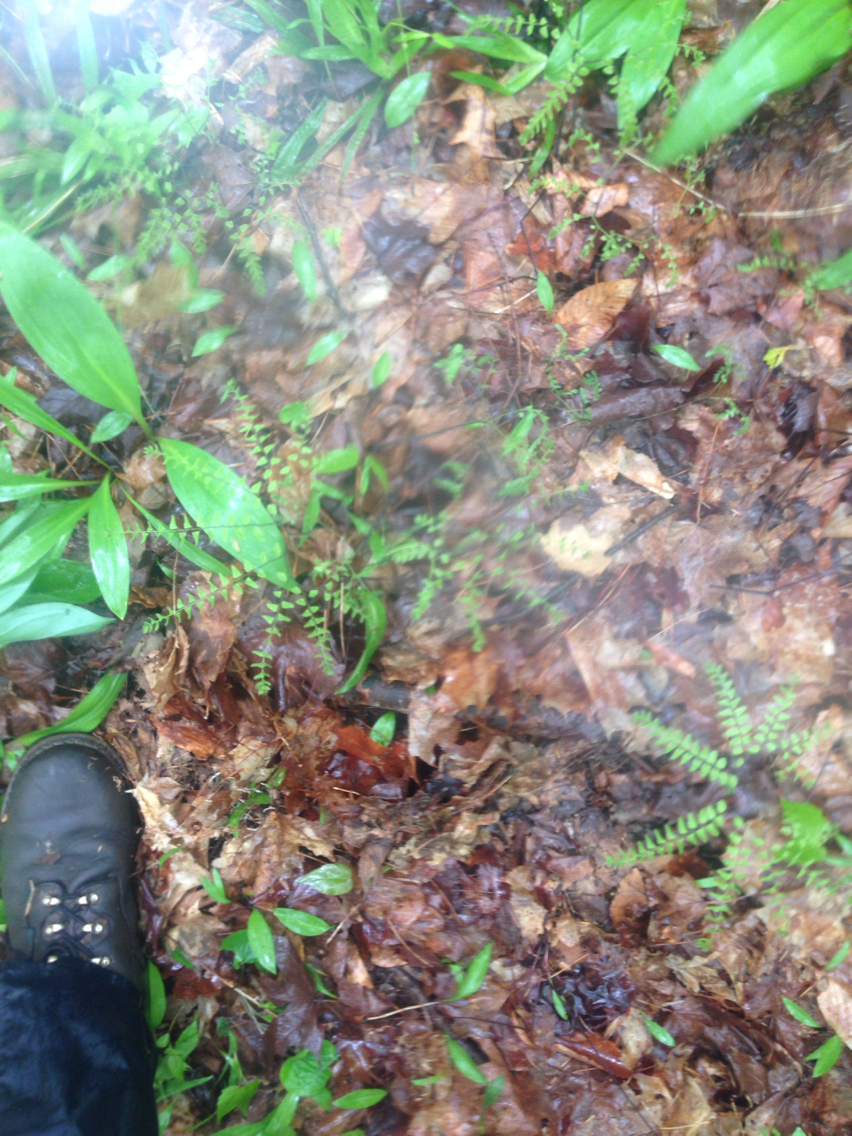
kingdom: Plantae
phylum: Tracheophyta
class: Polypodiopsida
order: Polypodiales
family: Pteridaceae
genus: Adiantum
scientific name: Adiantum pedatum
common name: Five-finger fern
